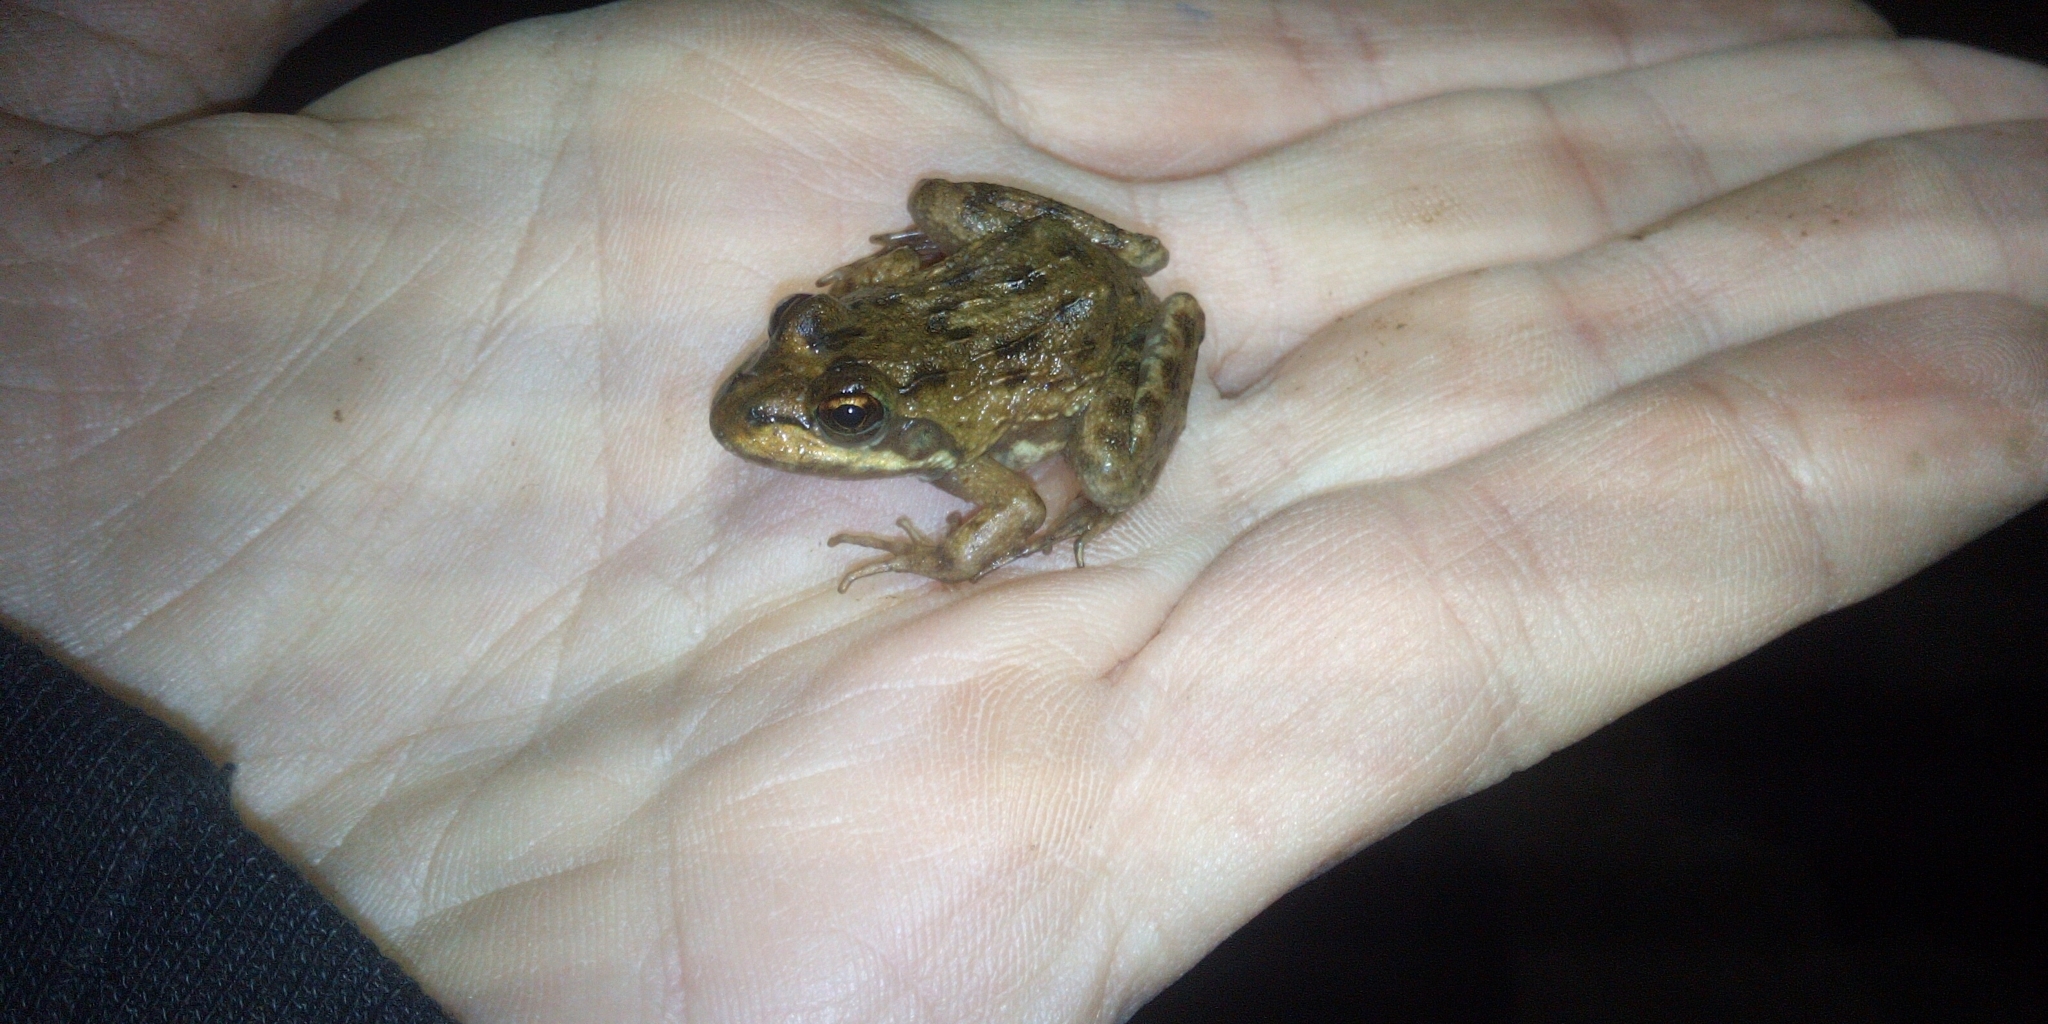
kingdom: Animalia
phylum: Chordata
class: Amphibia
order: Anura
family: Pyxicephalidae
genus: Amietia
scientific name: Amietia fuscigula
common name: Cape rana
